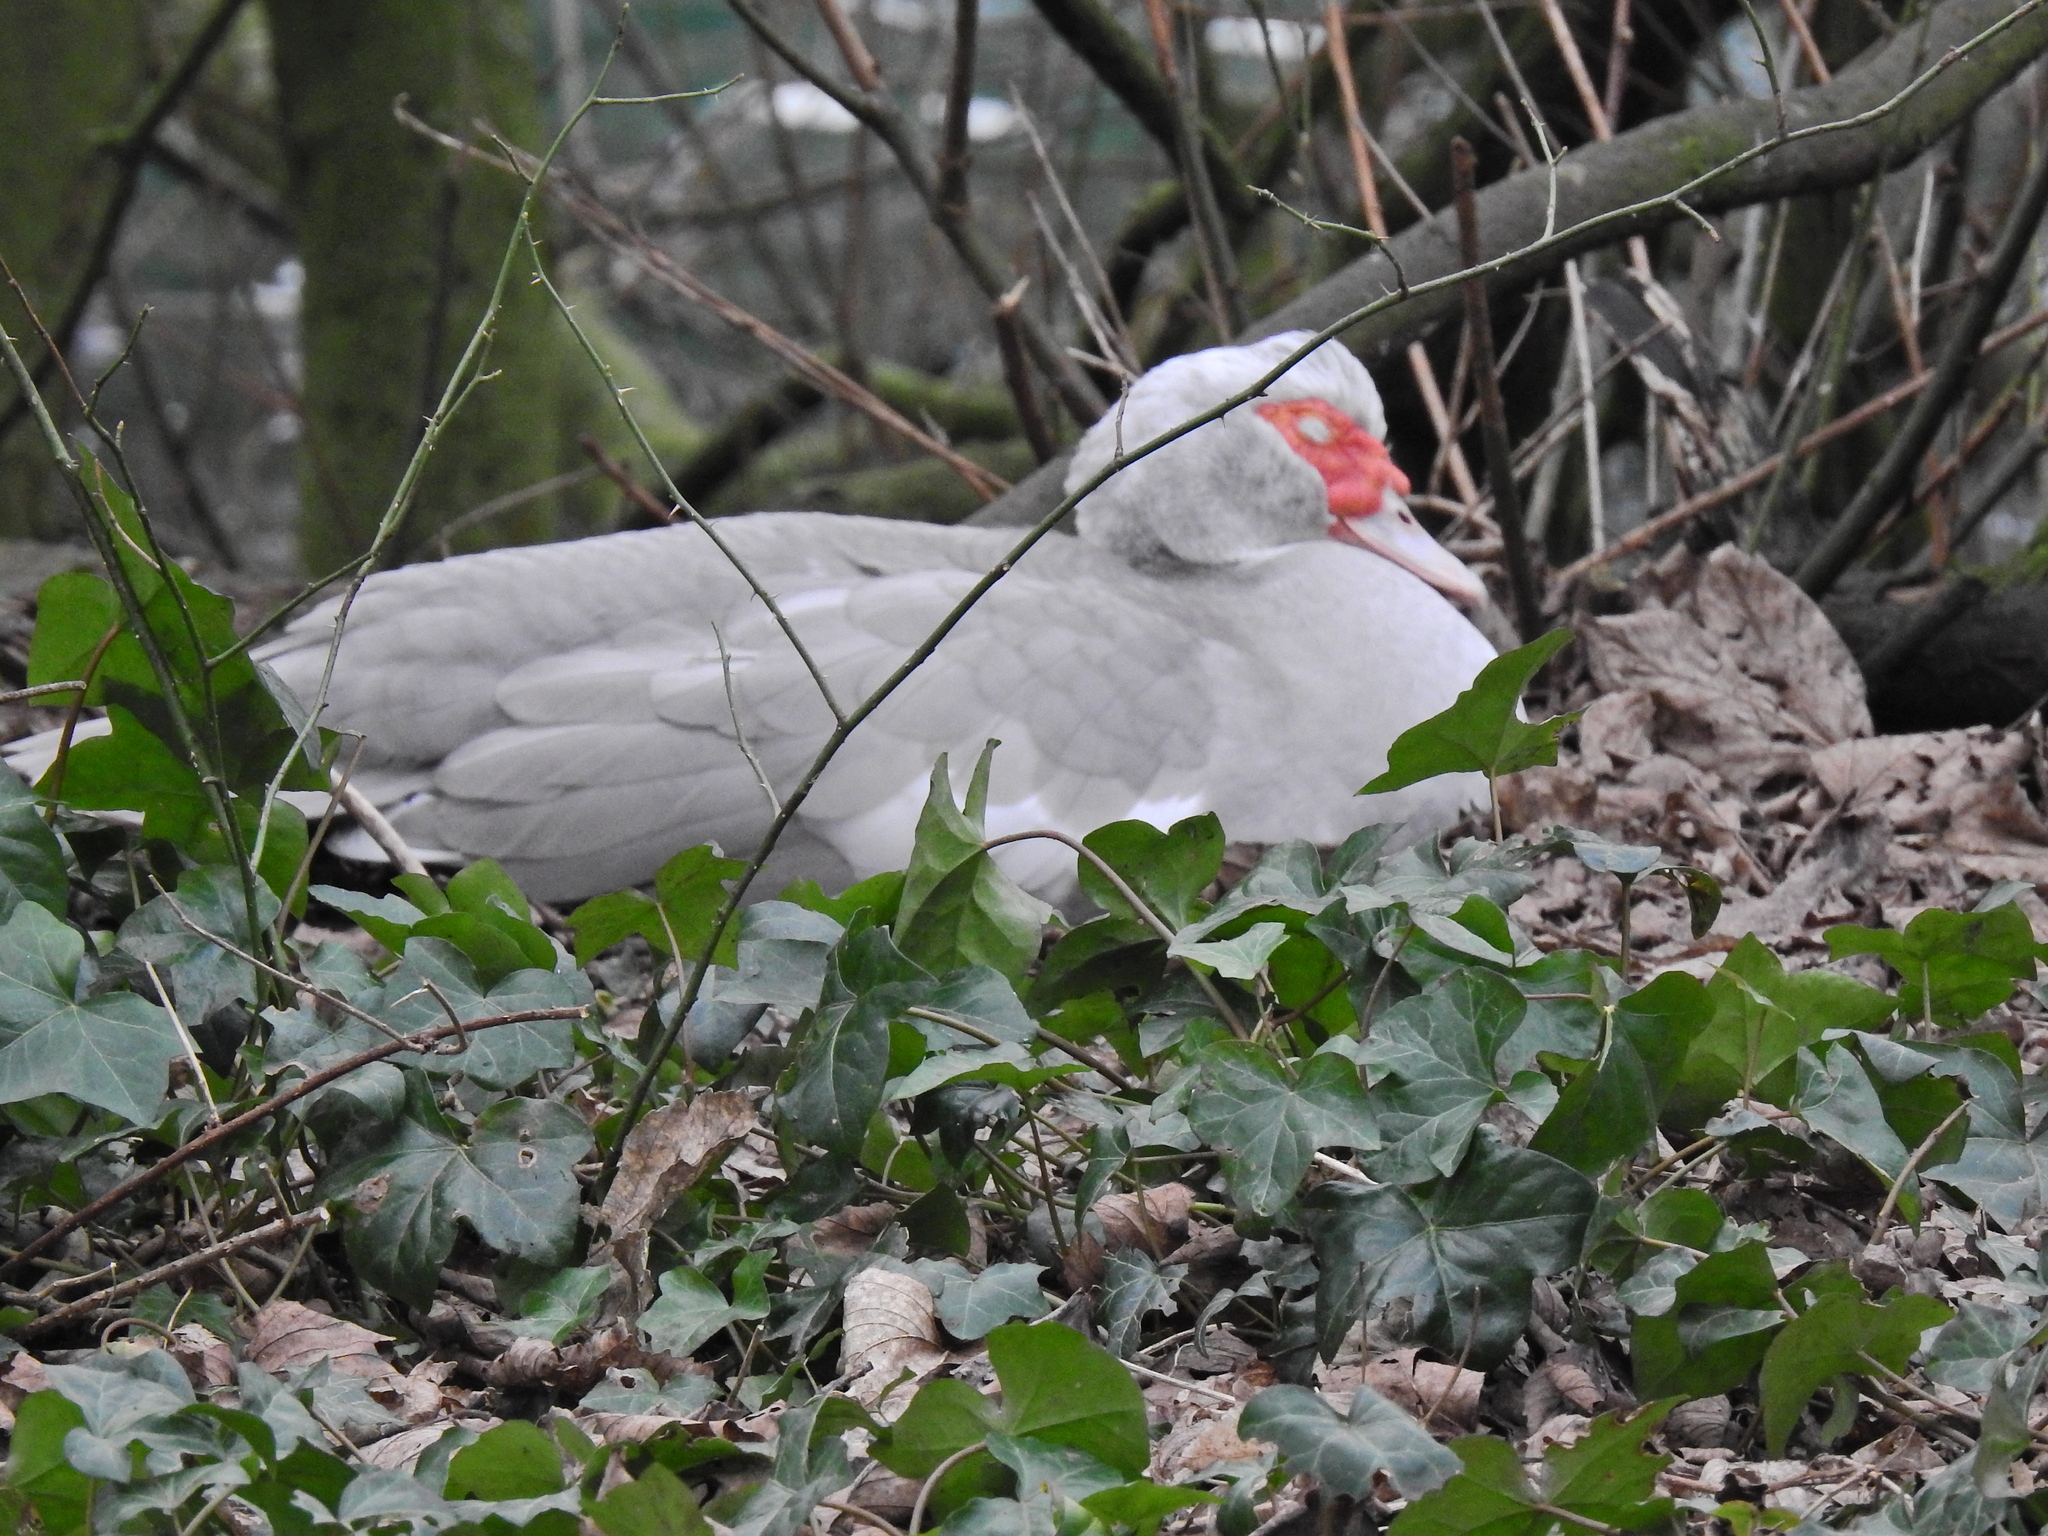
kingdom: Animalia
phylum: Chordata
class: Aves
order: Anseriformes
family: Anatidae
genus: Cairina
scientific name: Cairina moschata
